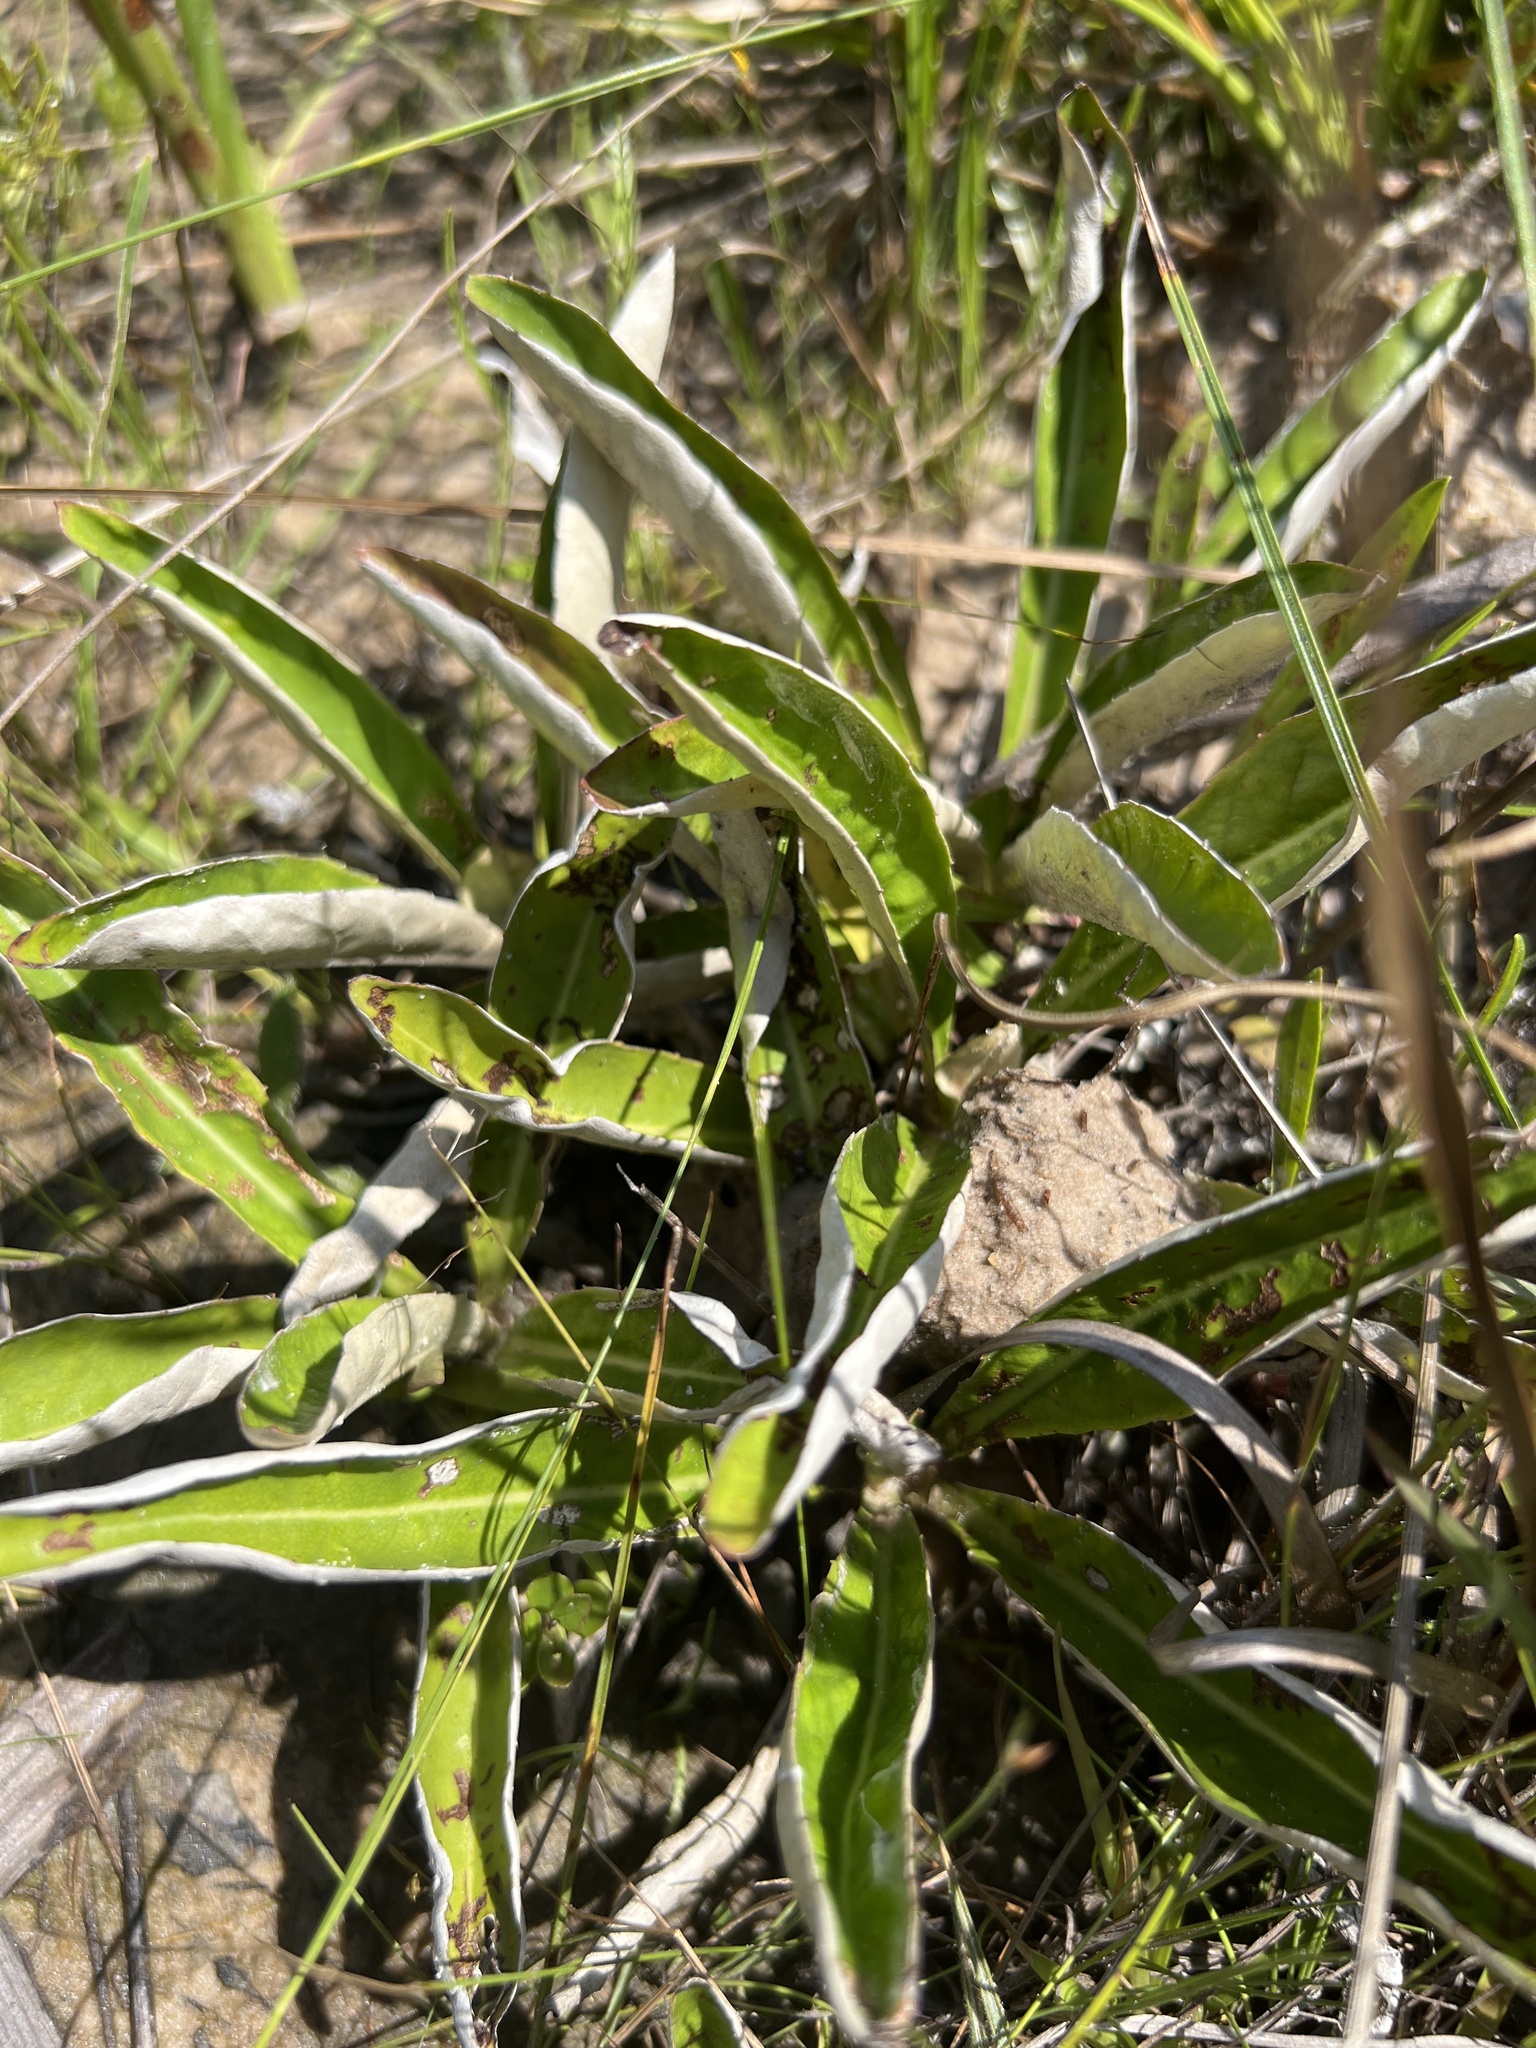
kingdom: Plantae
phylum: Tracheophyta
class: Magnoliopsida
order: Asterales
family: Asteraceae
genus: Chaptalia
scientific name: Chaptalia tomentosa
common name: Woolly sunbonnet
